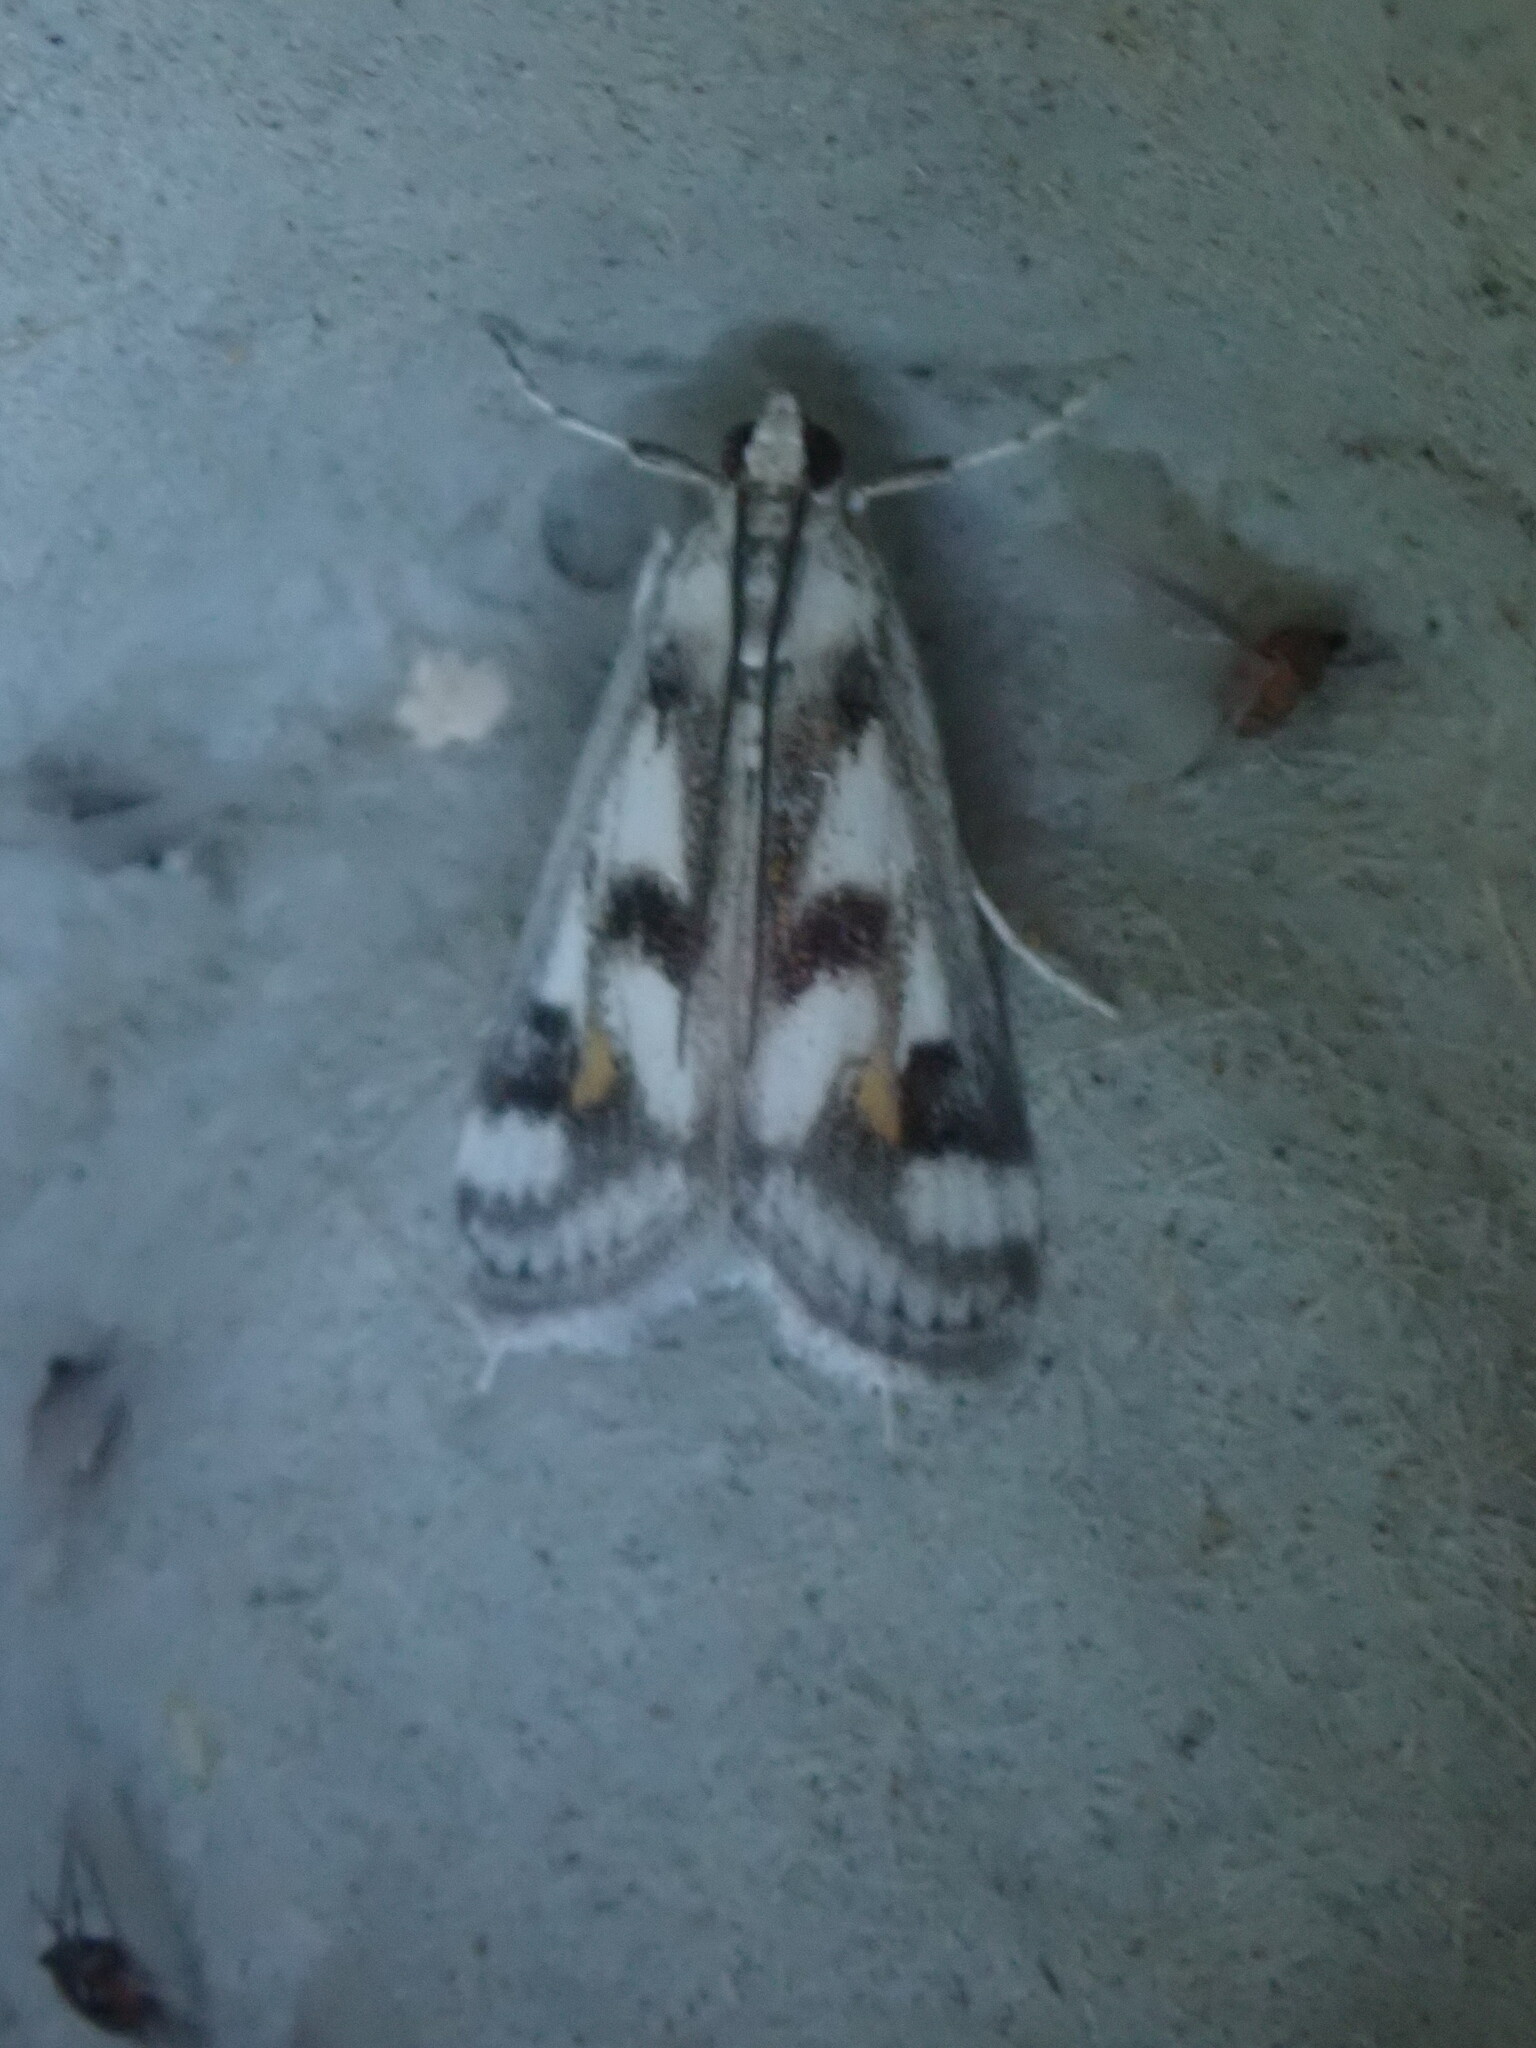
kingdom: Animalia
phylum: Arthropoda
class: Insecta
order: Lepidoptera
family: Crambidae
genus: Parapoynx
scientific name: Parapoynx maculalis
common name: Polymorphic pondweed moth
